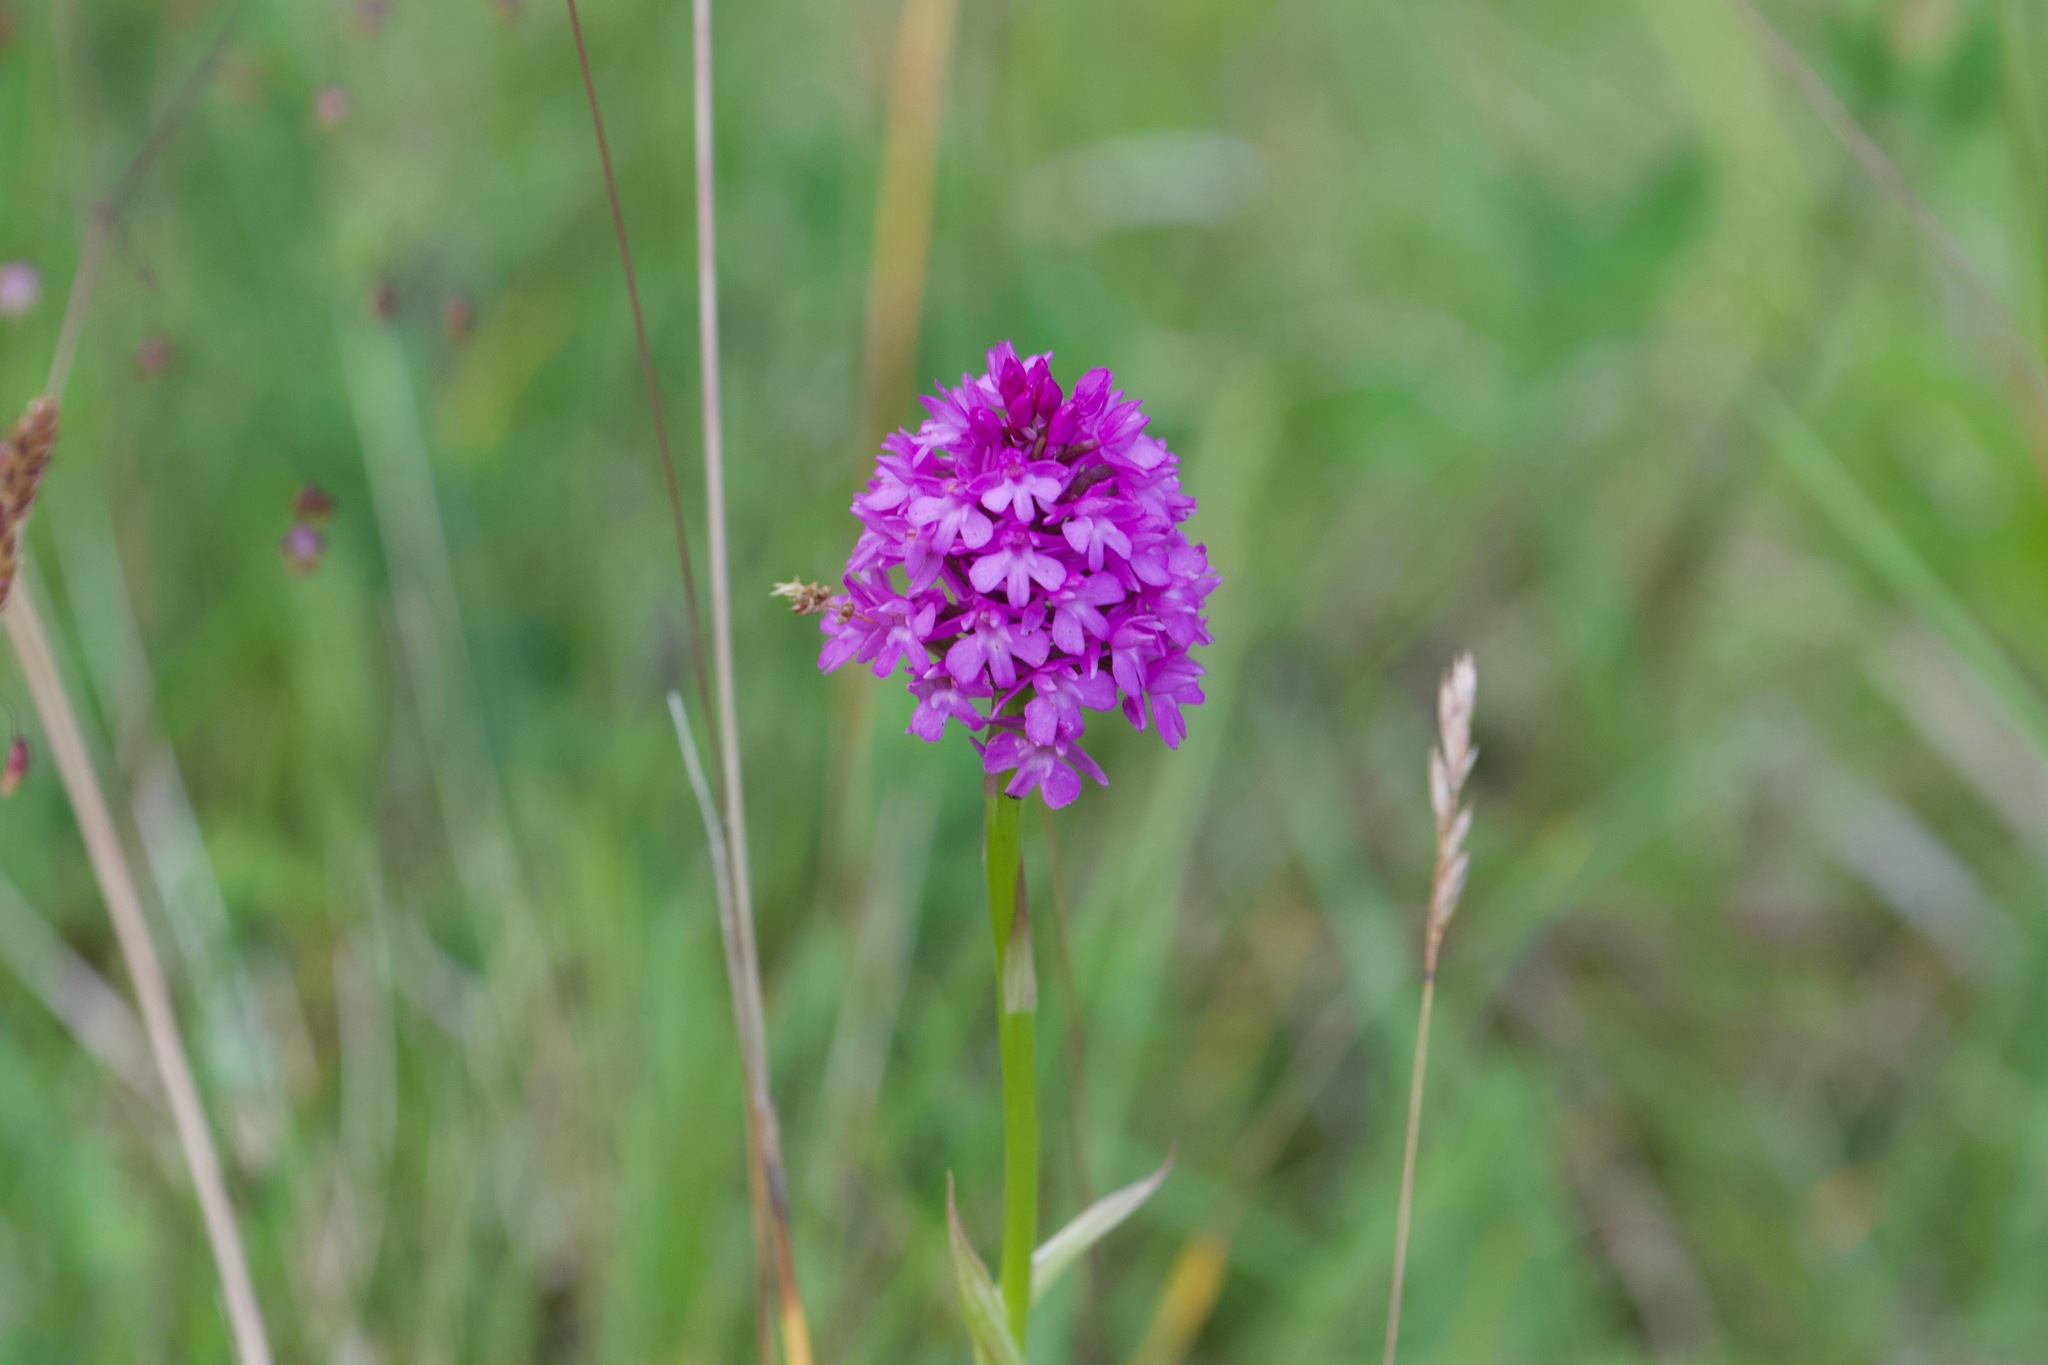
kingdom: Plantae
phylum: Tracheophyta
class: Liliopsida
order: Asparagales
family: Orchidaceae
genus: Anacamptis
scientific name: Anacamptis pyramidalis
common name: Pyramidal orchid
